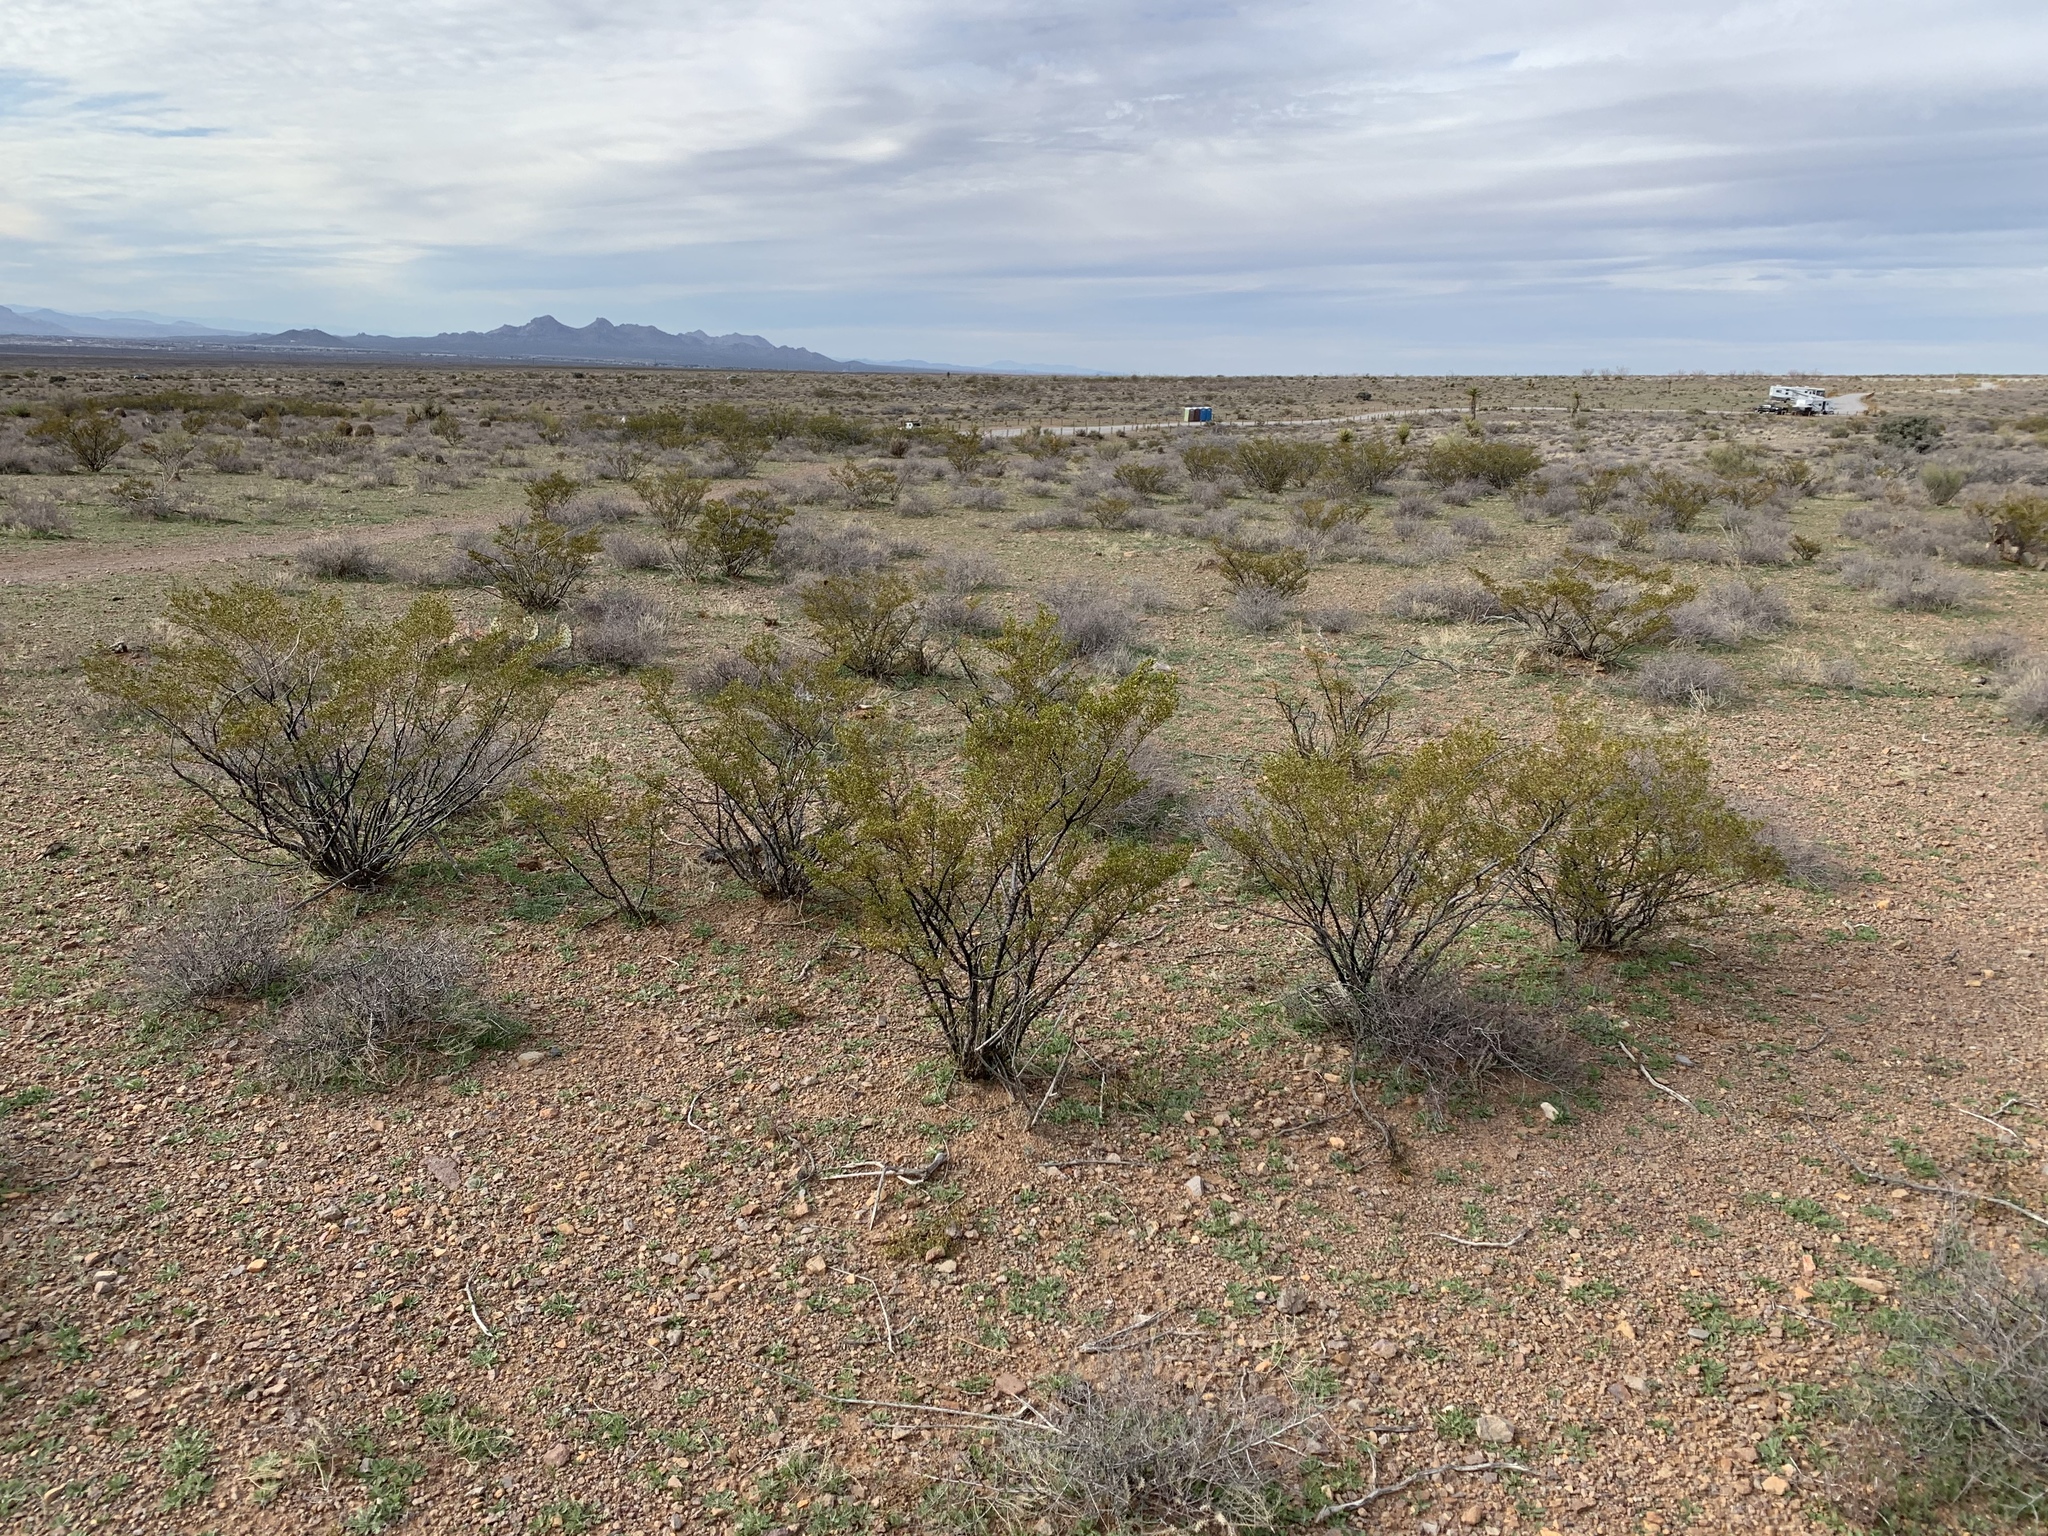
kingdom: Plantae
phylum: Tracheophyta
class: Magnoliopsida
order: Zygophyllales
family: Zygophyllaceae
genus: Larrea
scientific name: Larrea tridentata
